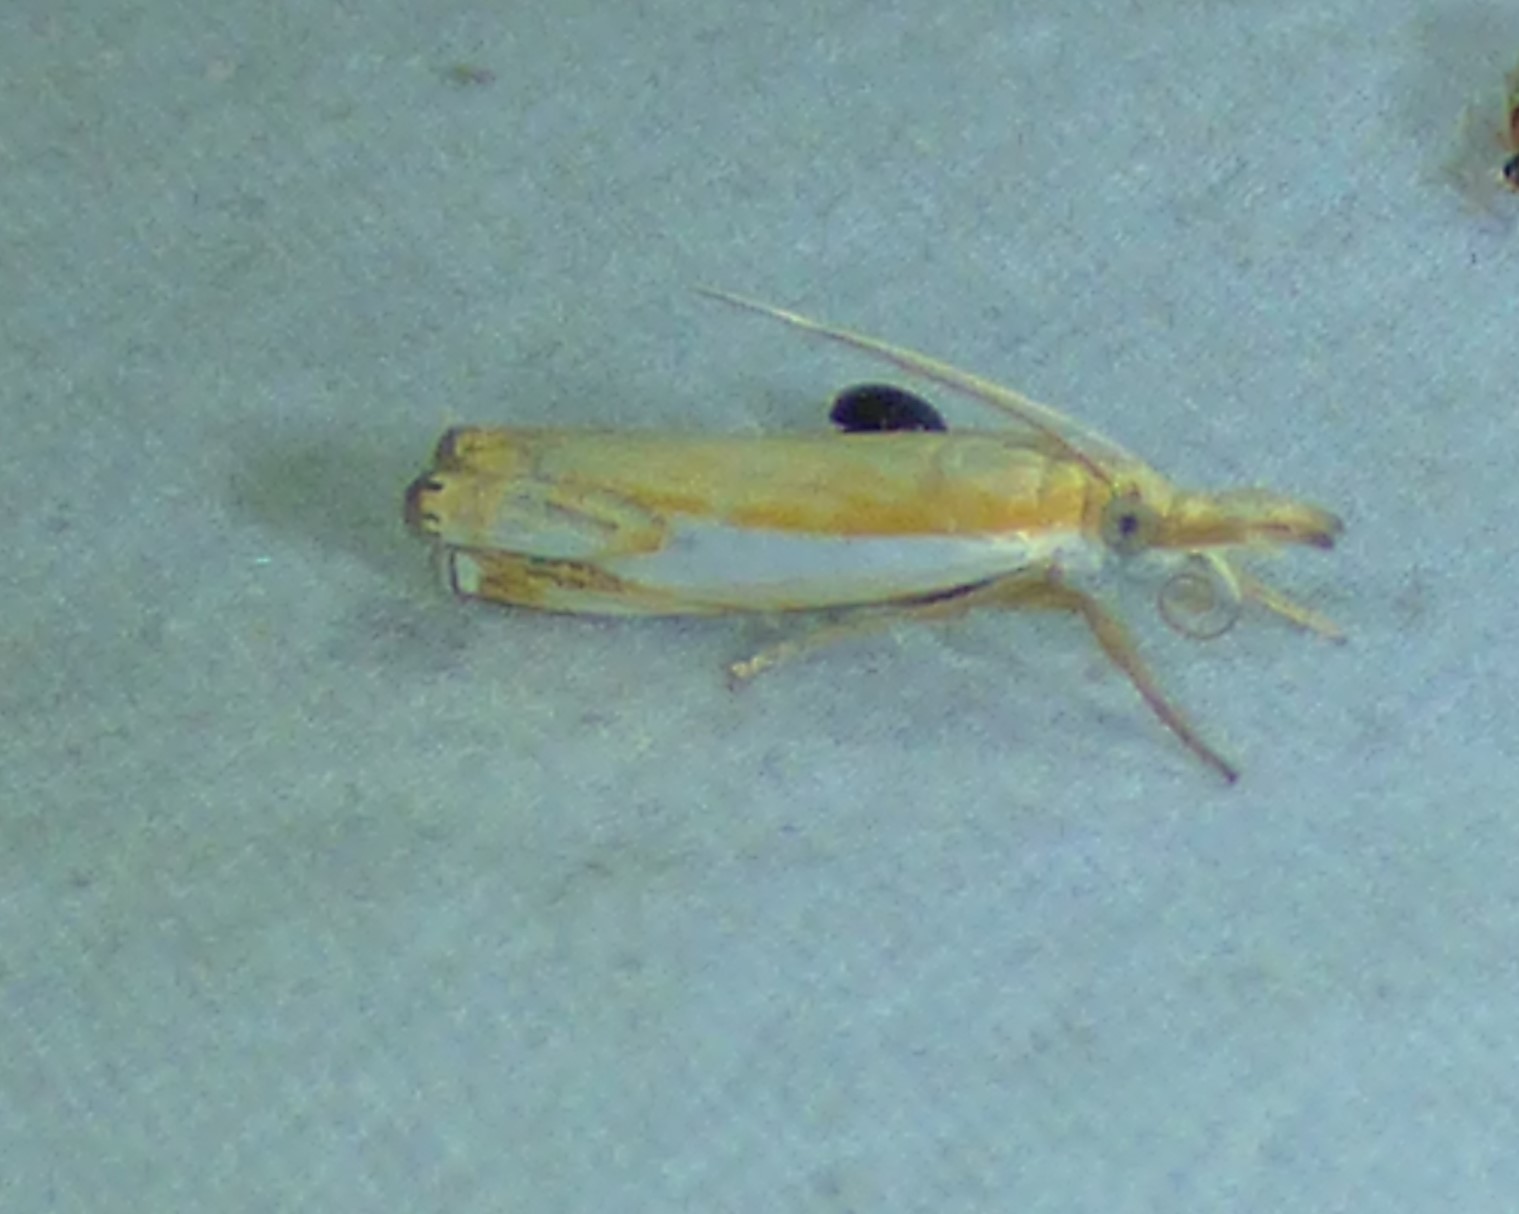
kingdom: Animalia
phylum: Arthropoda
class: Insecta
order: Lepidoptera
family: Crambidae
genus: Crambus
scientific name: Crambus agitatellus
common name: Double-banded grass-veneer
